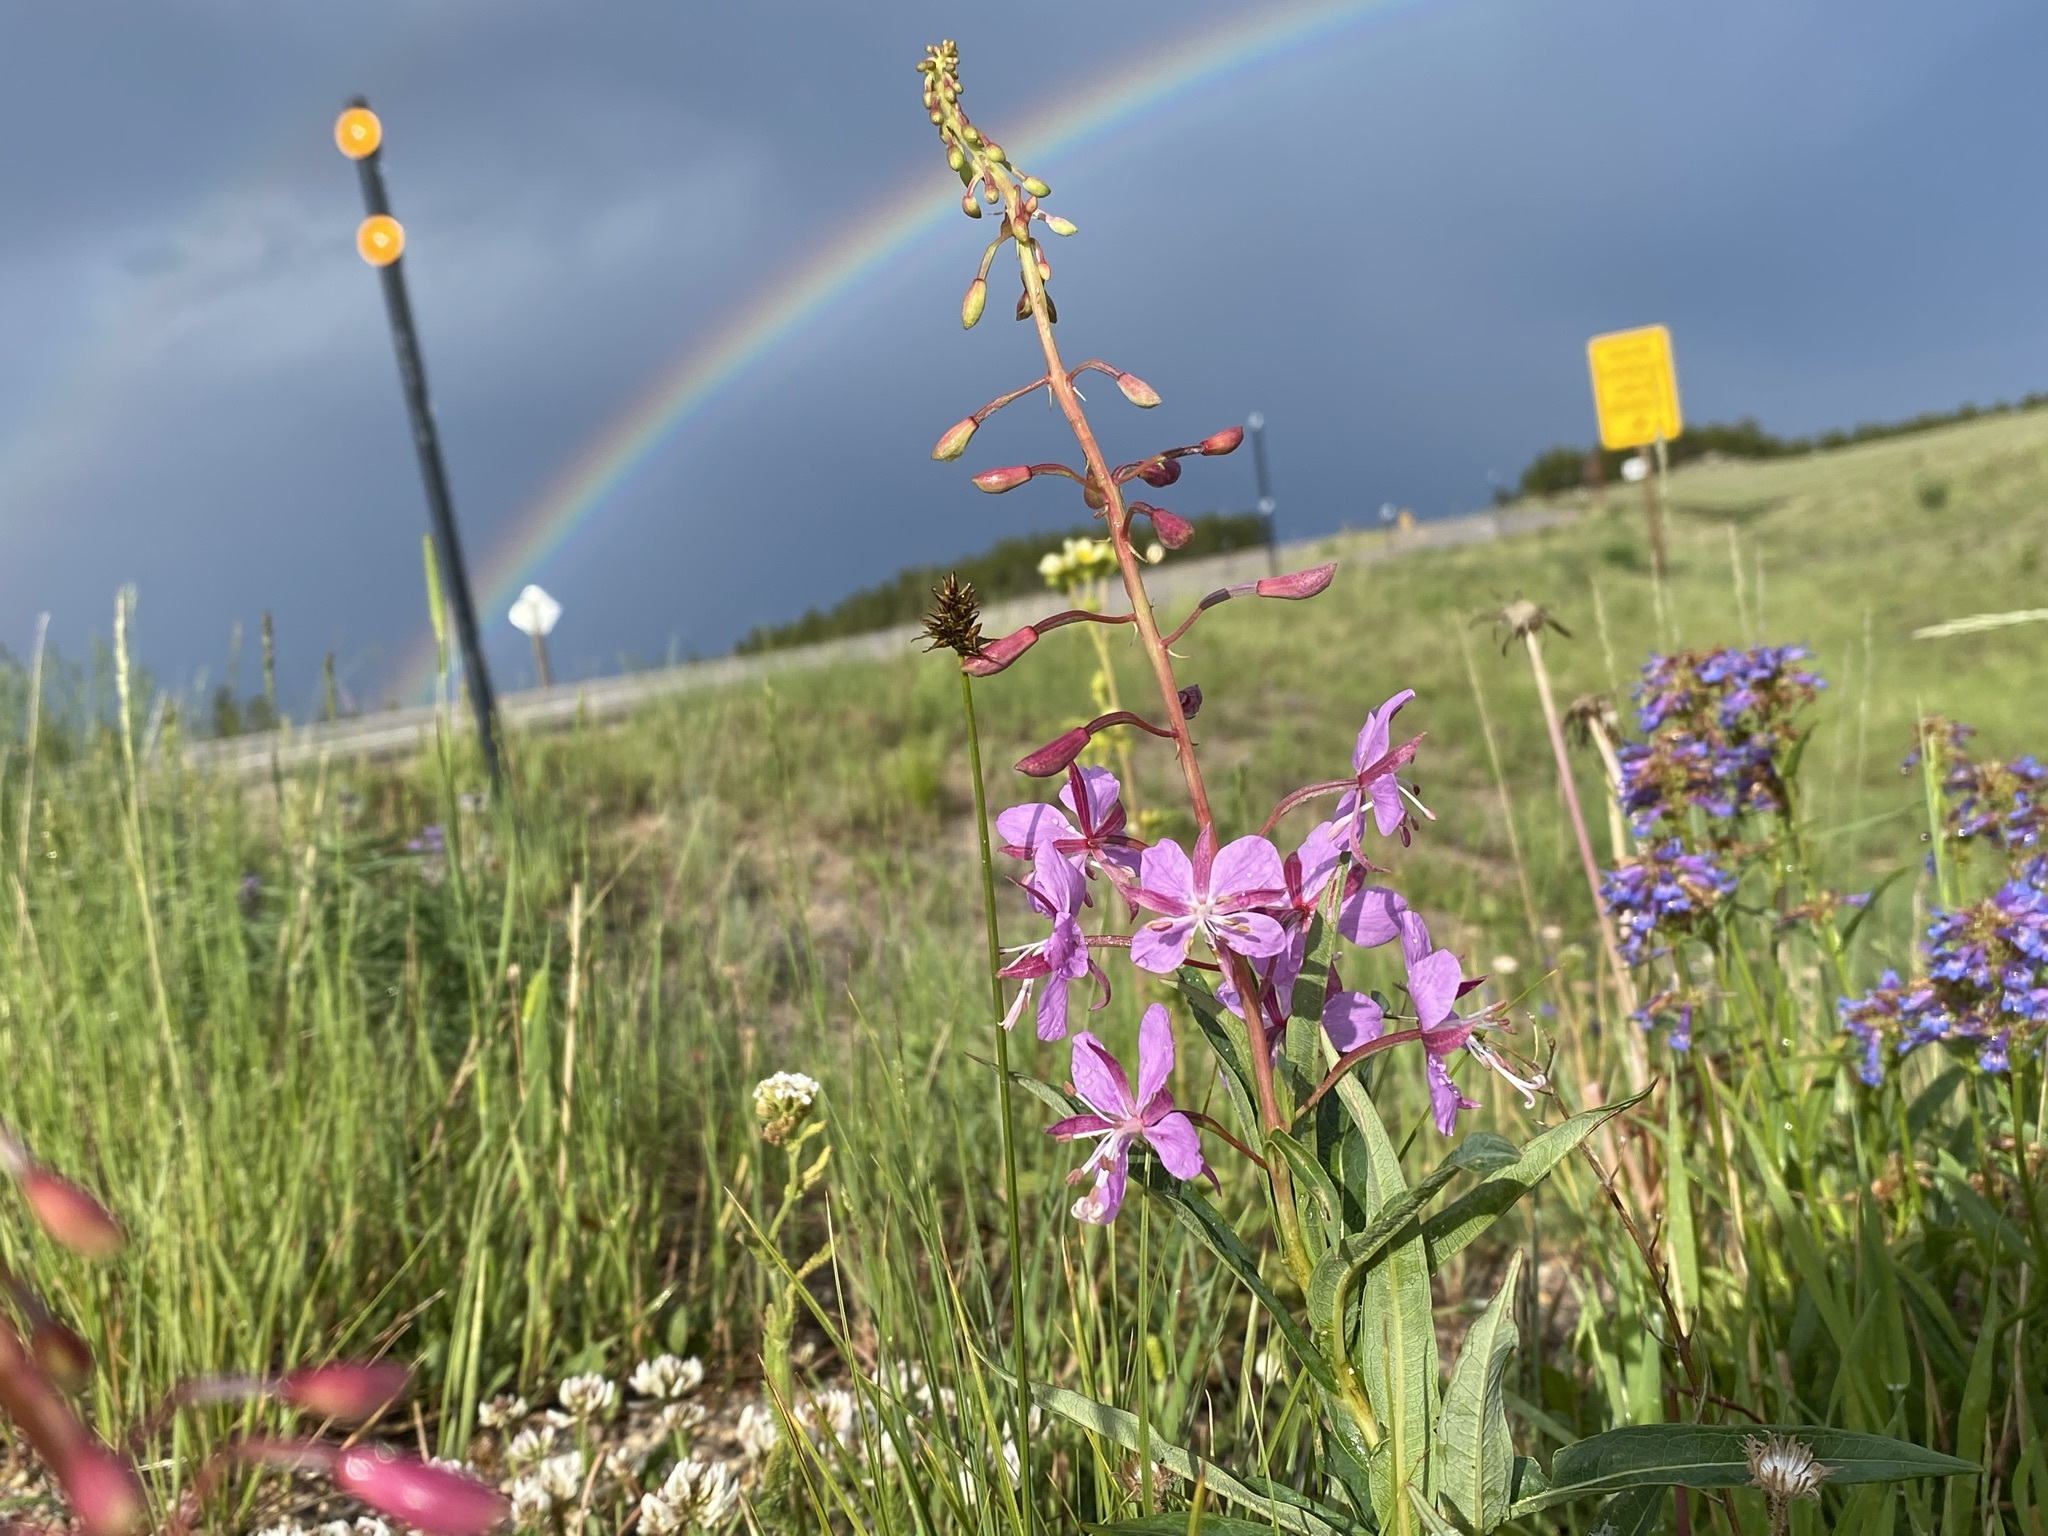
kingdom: Plantae
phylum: Tracheophyta
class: Magnoliopsida
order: Myrtales
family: Onagraceae
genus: Chamaenerion
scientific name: Chamaenerion angustifolium
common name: Fireweed
